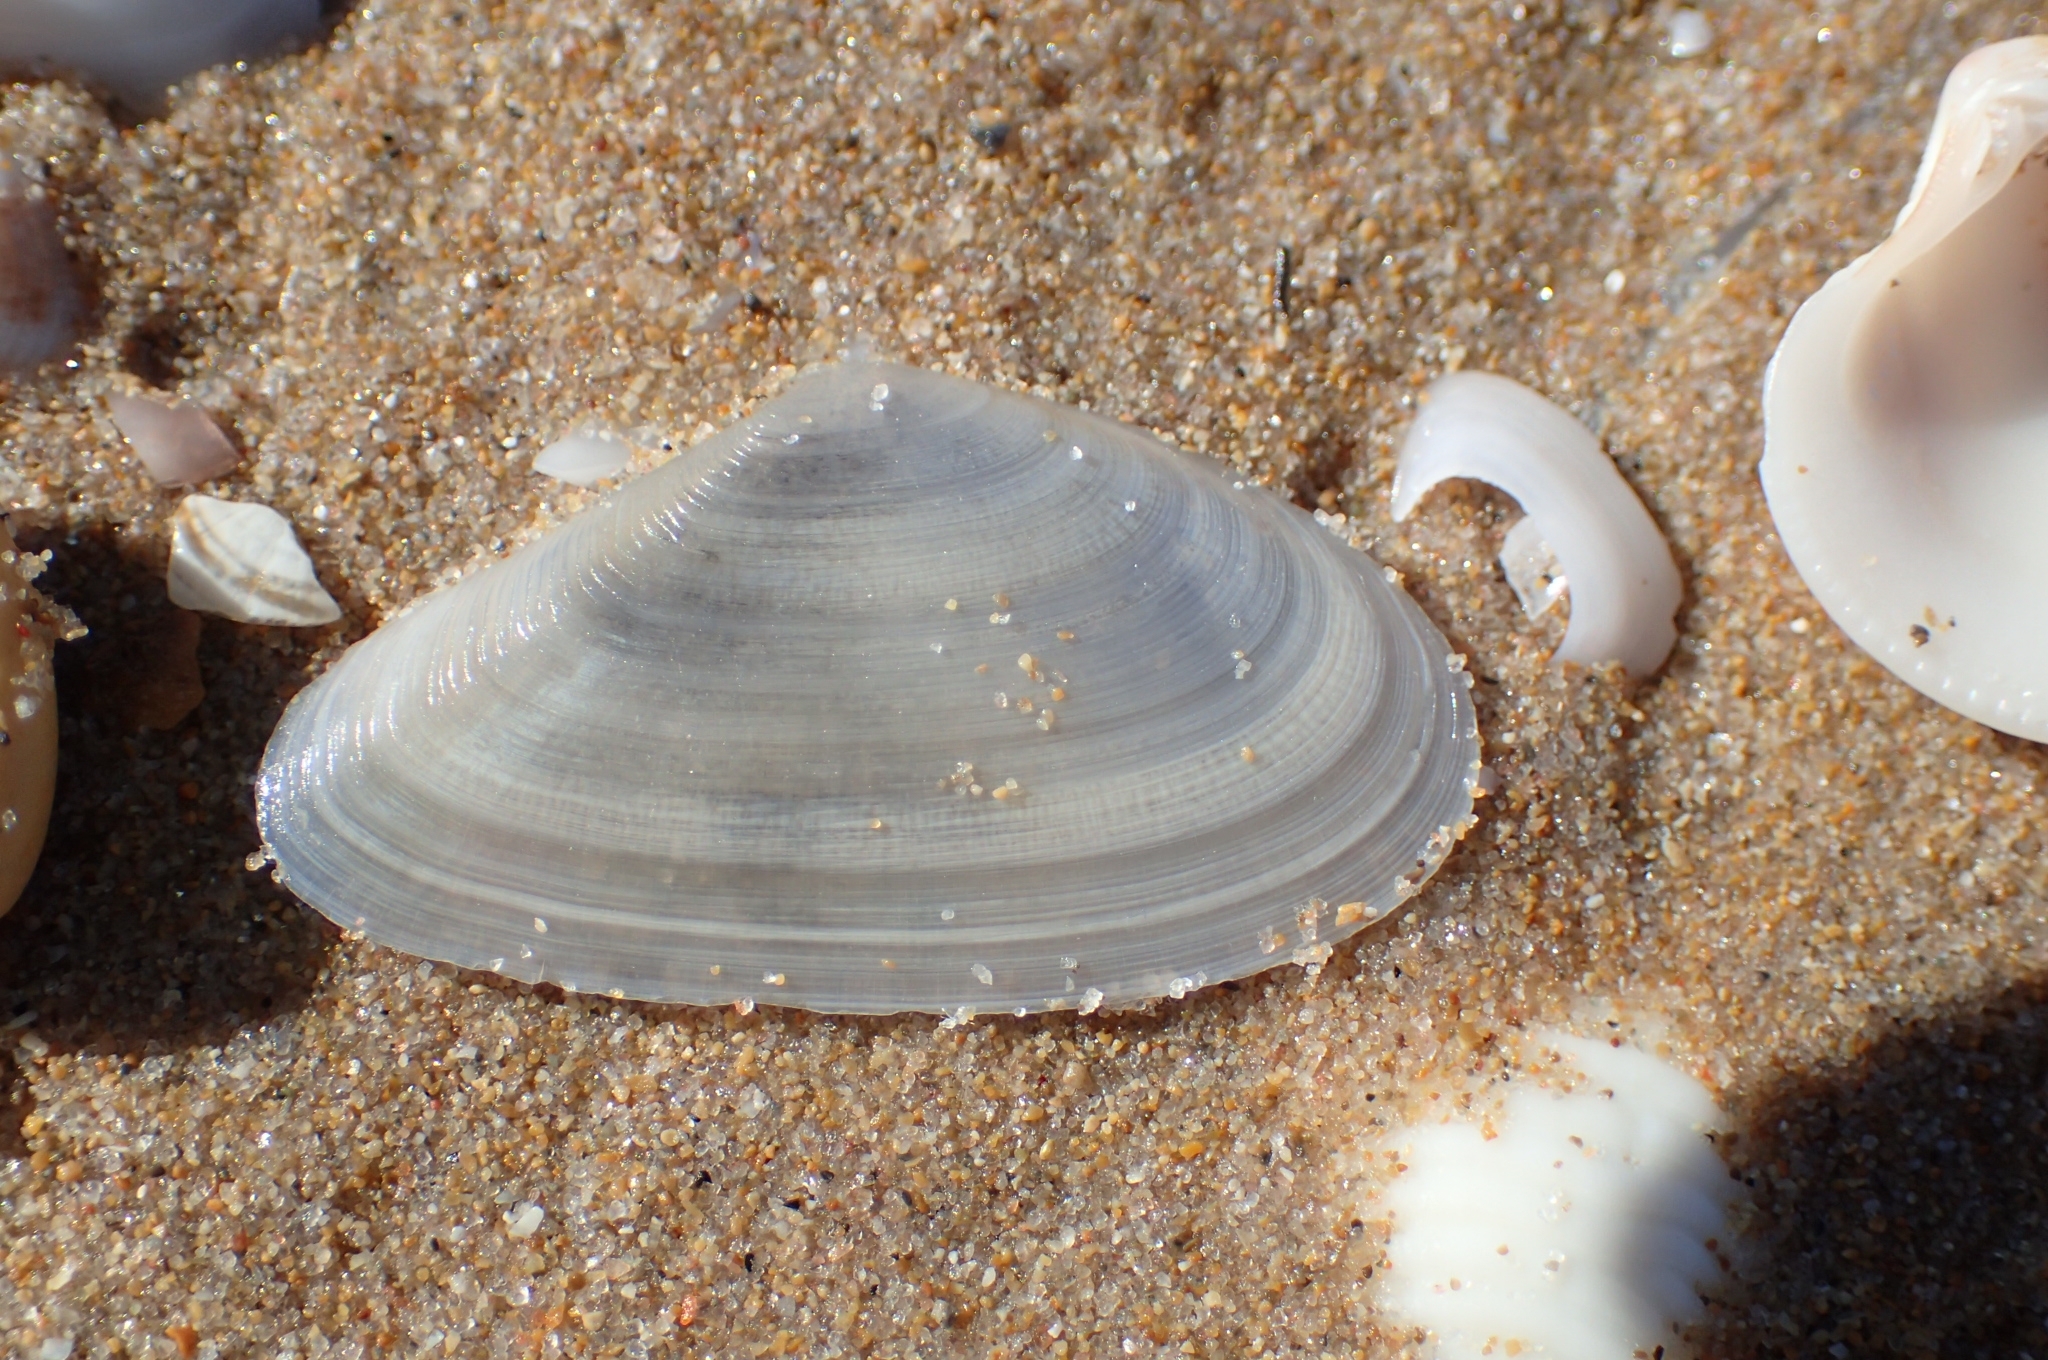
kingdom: Animalia
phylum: Mollusca
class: Bivalvia
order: Cardiida
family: Tellinidae
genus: Peronidia
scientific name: Peronidia albicans
